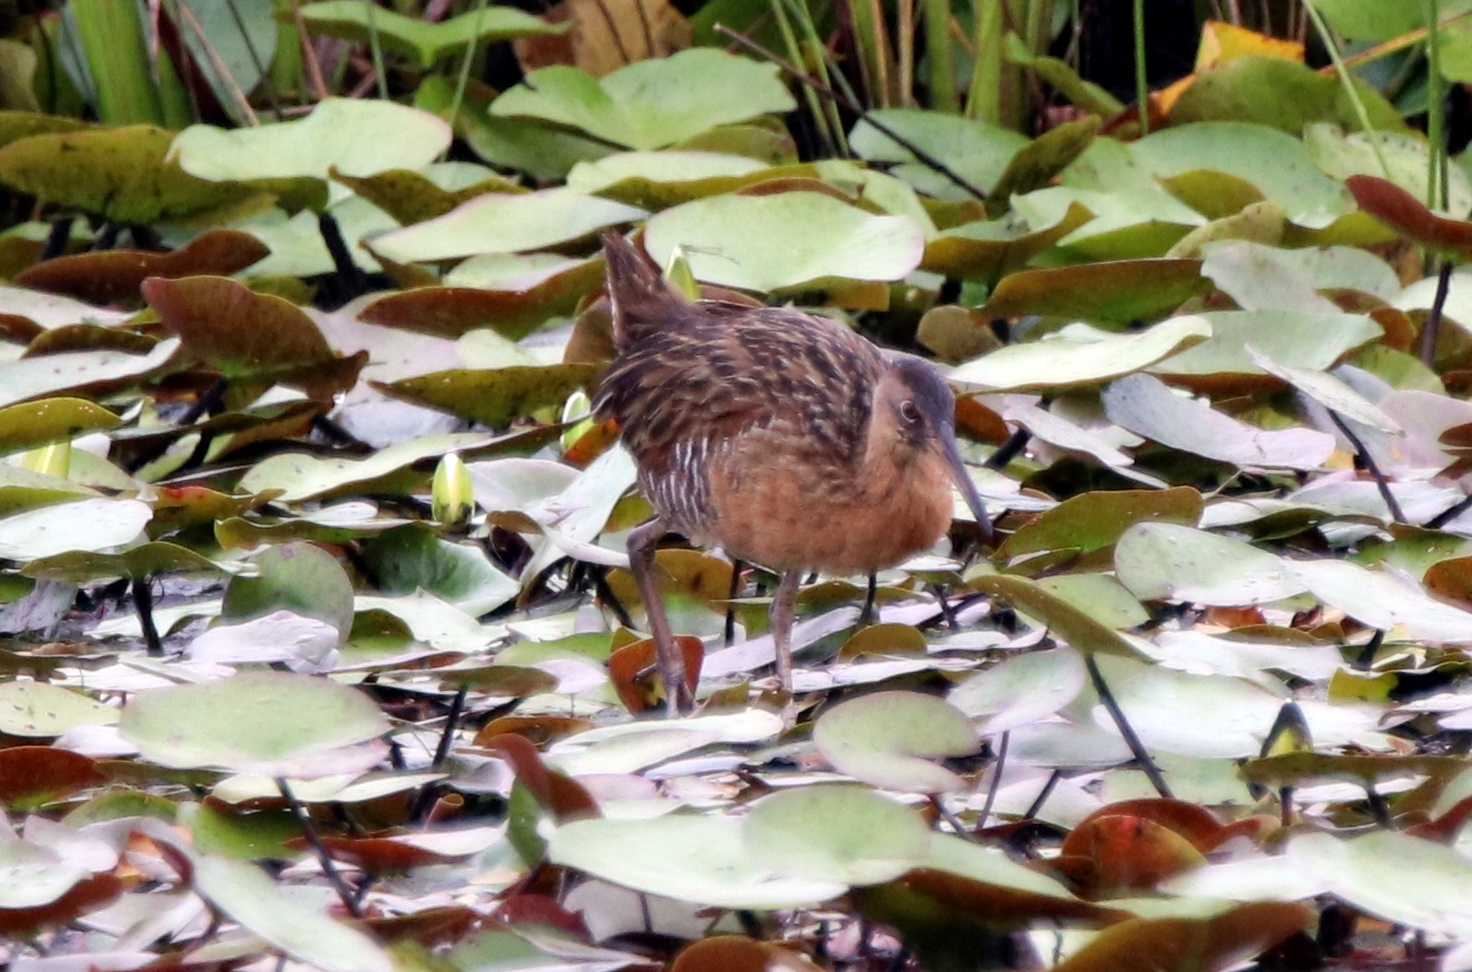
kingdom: Animalia
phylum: Chordata
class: Aves
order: Gruiformes
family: Rallidae
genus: Rallus
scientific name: Rallus elegans
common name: King rail
